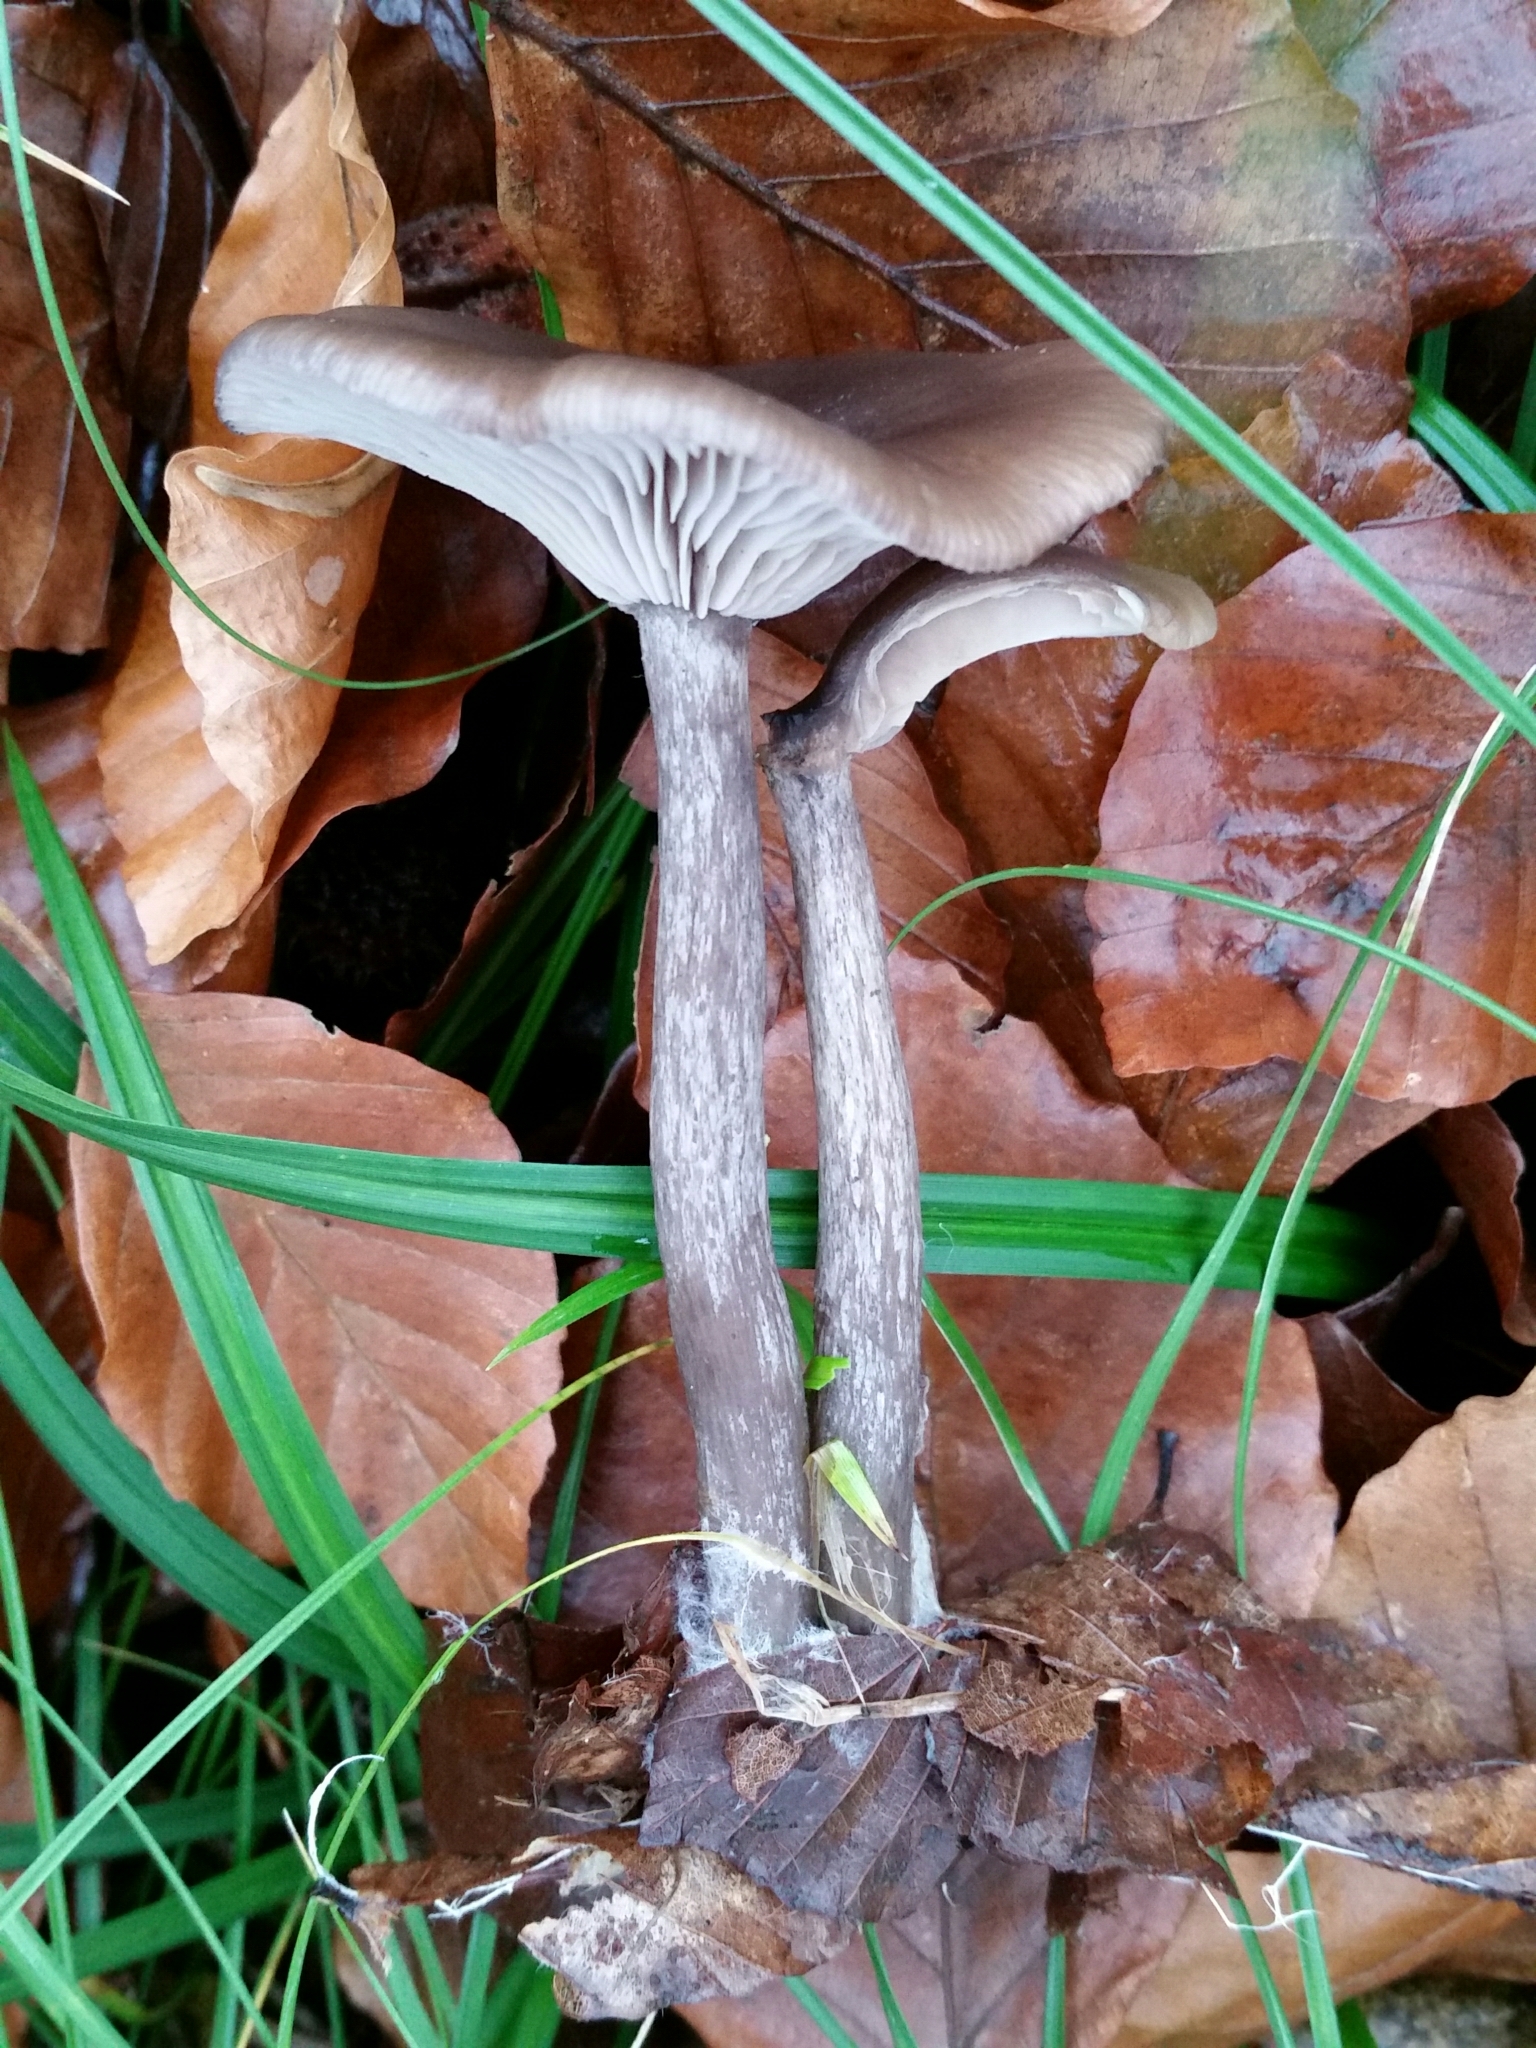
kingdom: Fungi
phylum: Basidiomycota
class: Agaricomycetes
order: Agaricales
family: Pseudoclitocybaceae
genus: Pseudoclitocybe
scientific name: Pseudoclitocybe cyathiformis
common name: Goblet
